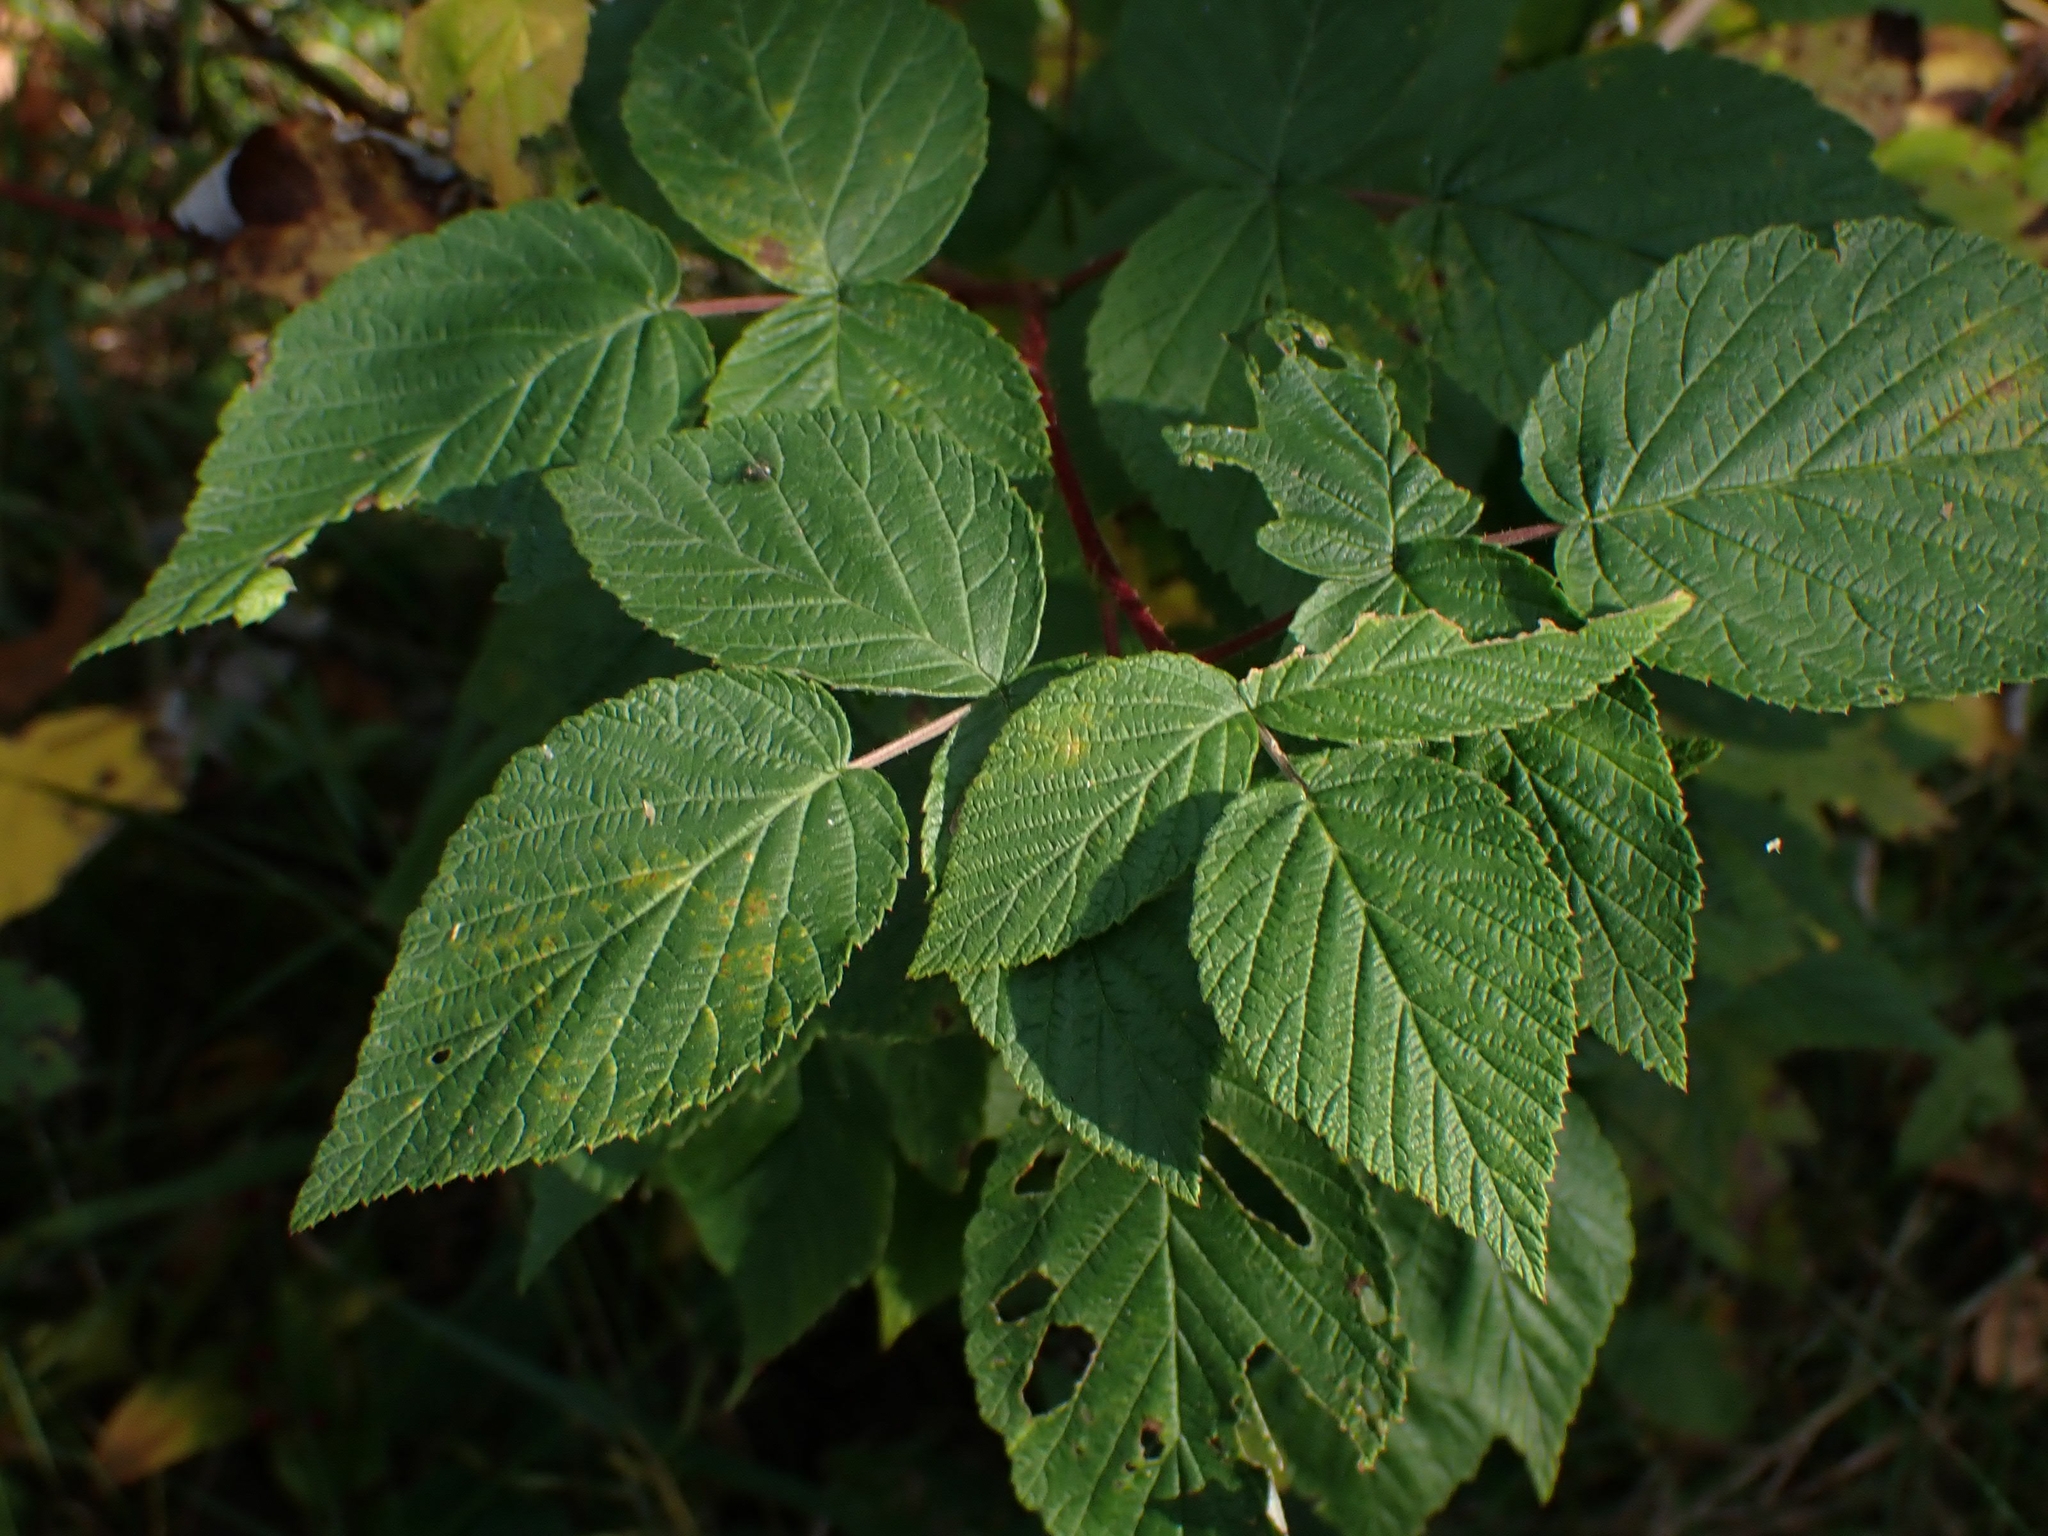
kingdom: Plantae
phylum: Tracheophyta
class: Magnoliopsida
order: Rosales
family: Rosaceae
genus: Rubus
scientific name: Rubus idaeus
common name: Raspberry
